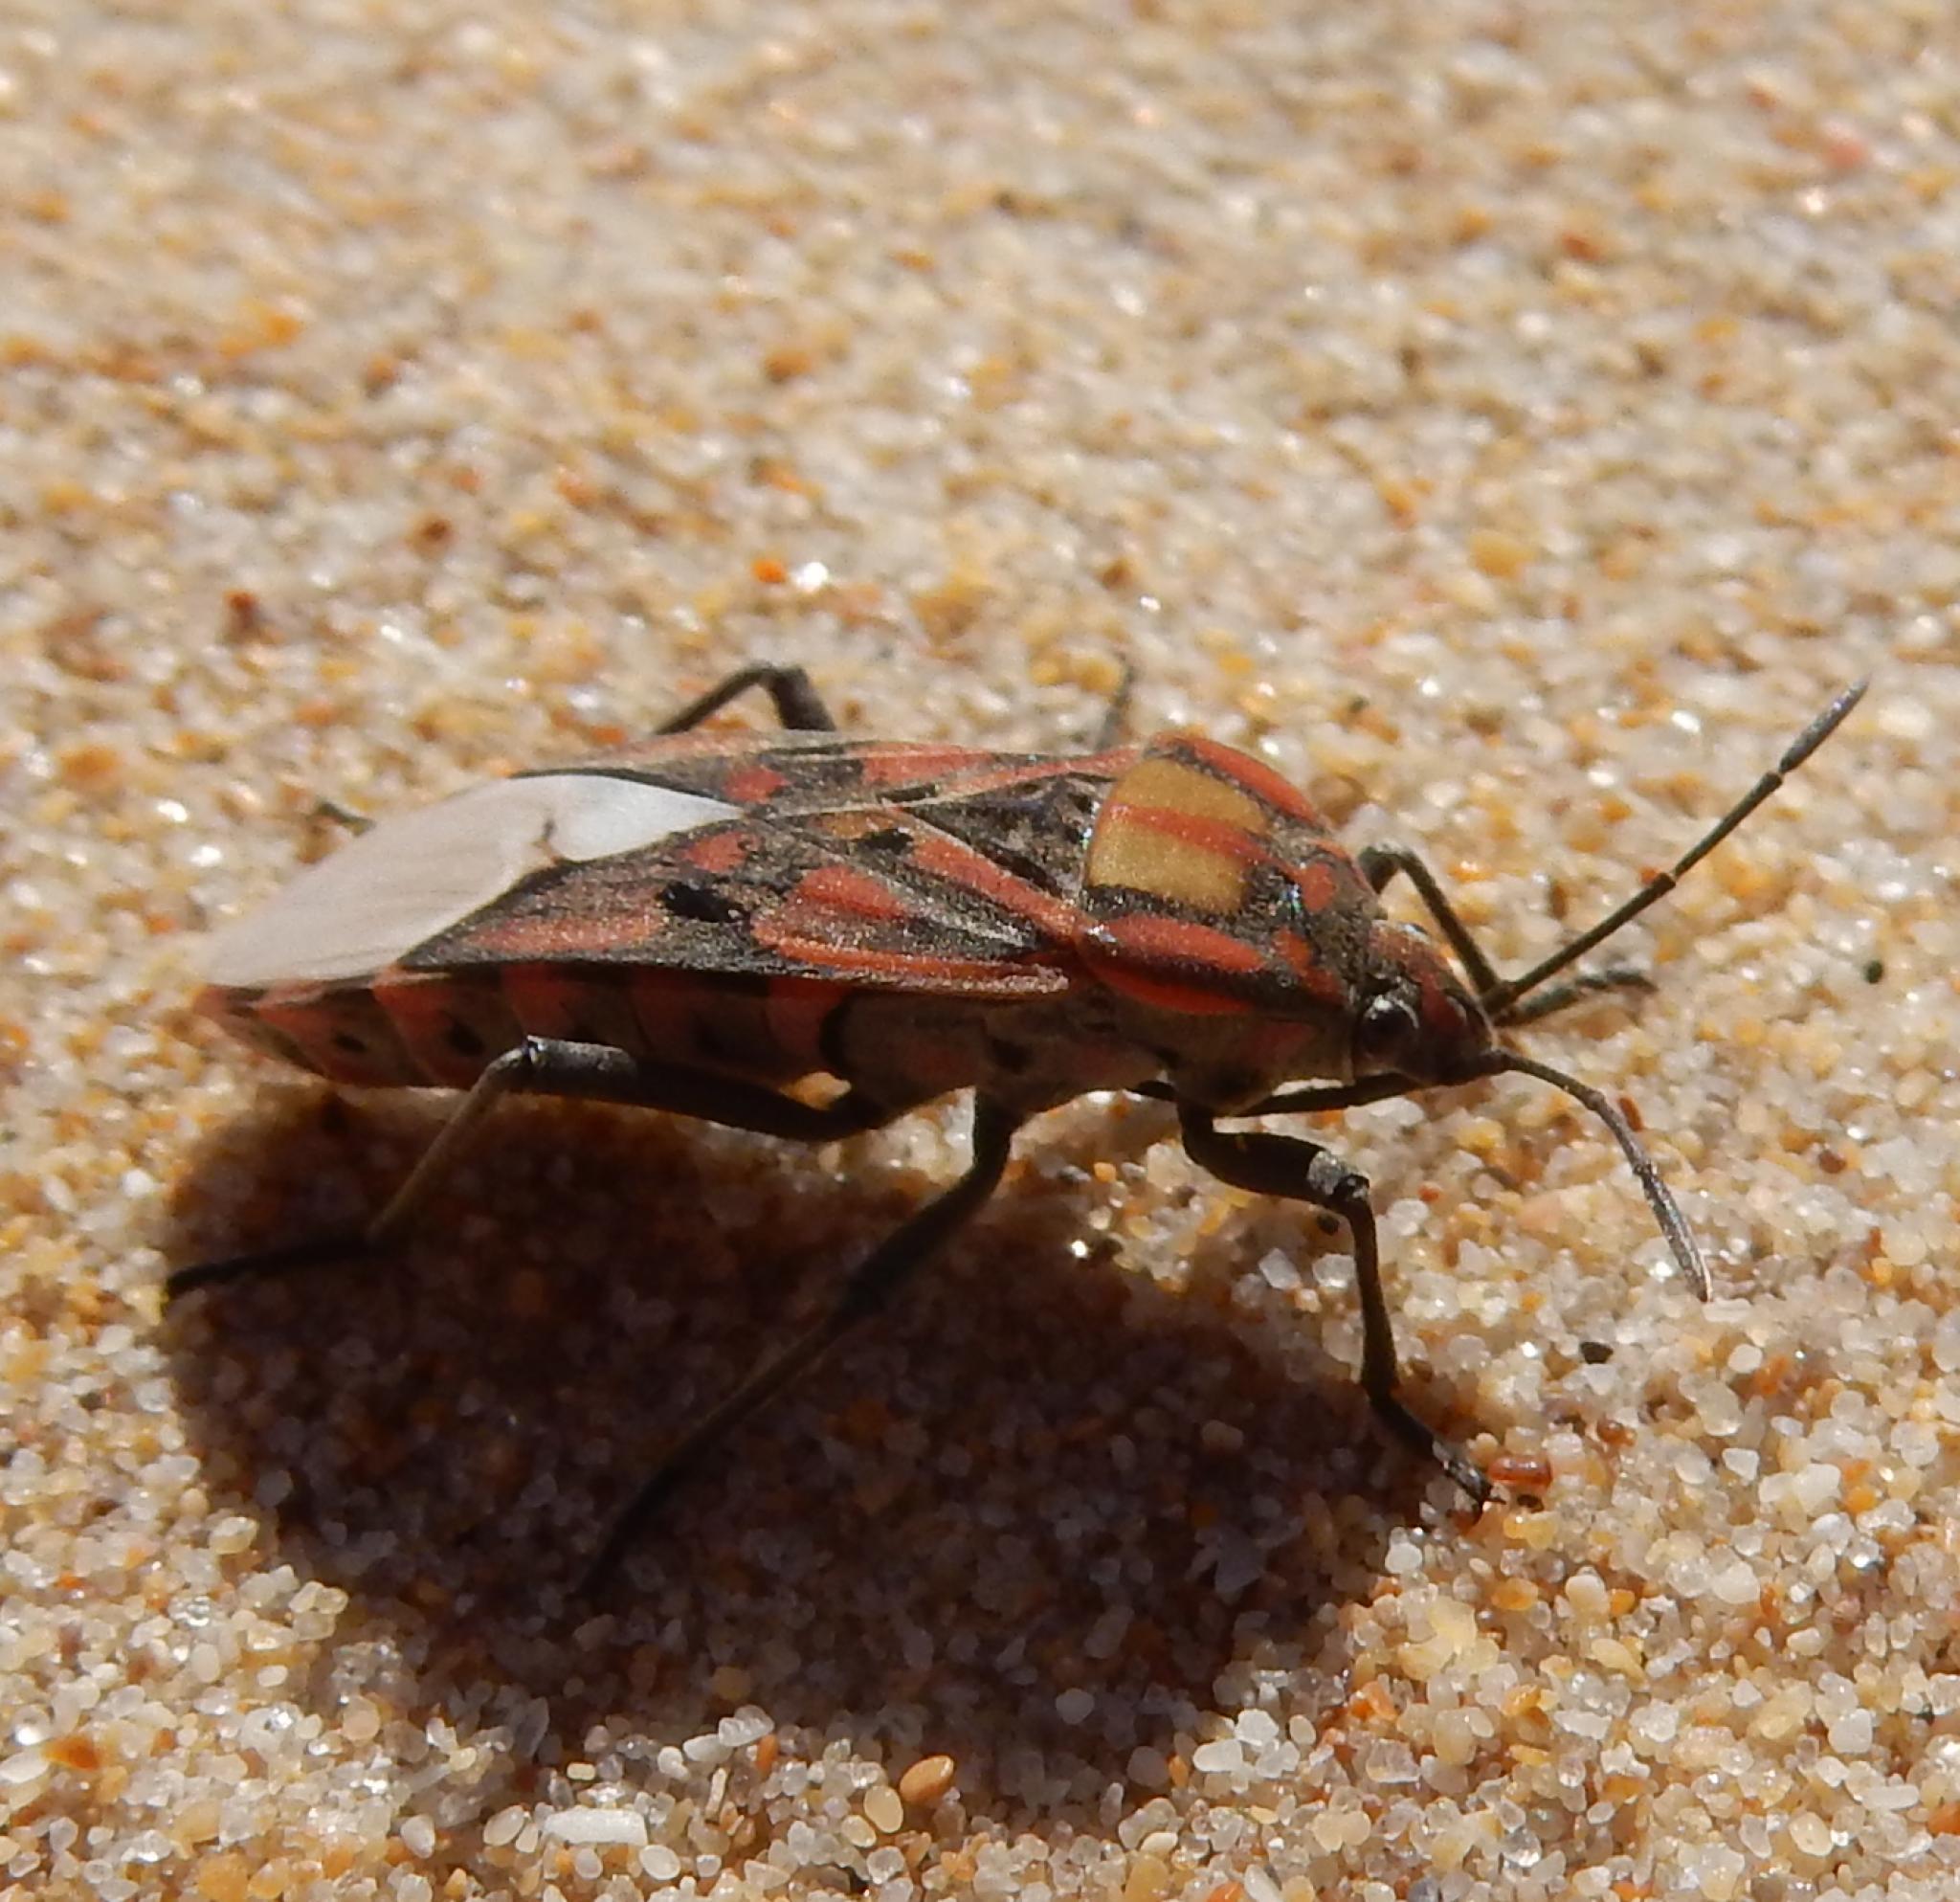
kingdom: Animalia
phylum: Arthropoda
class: Insecta
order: Hemiptera
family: Lygaeidae
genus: Spilostethus
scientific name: Spilostethus pandurus
